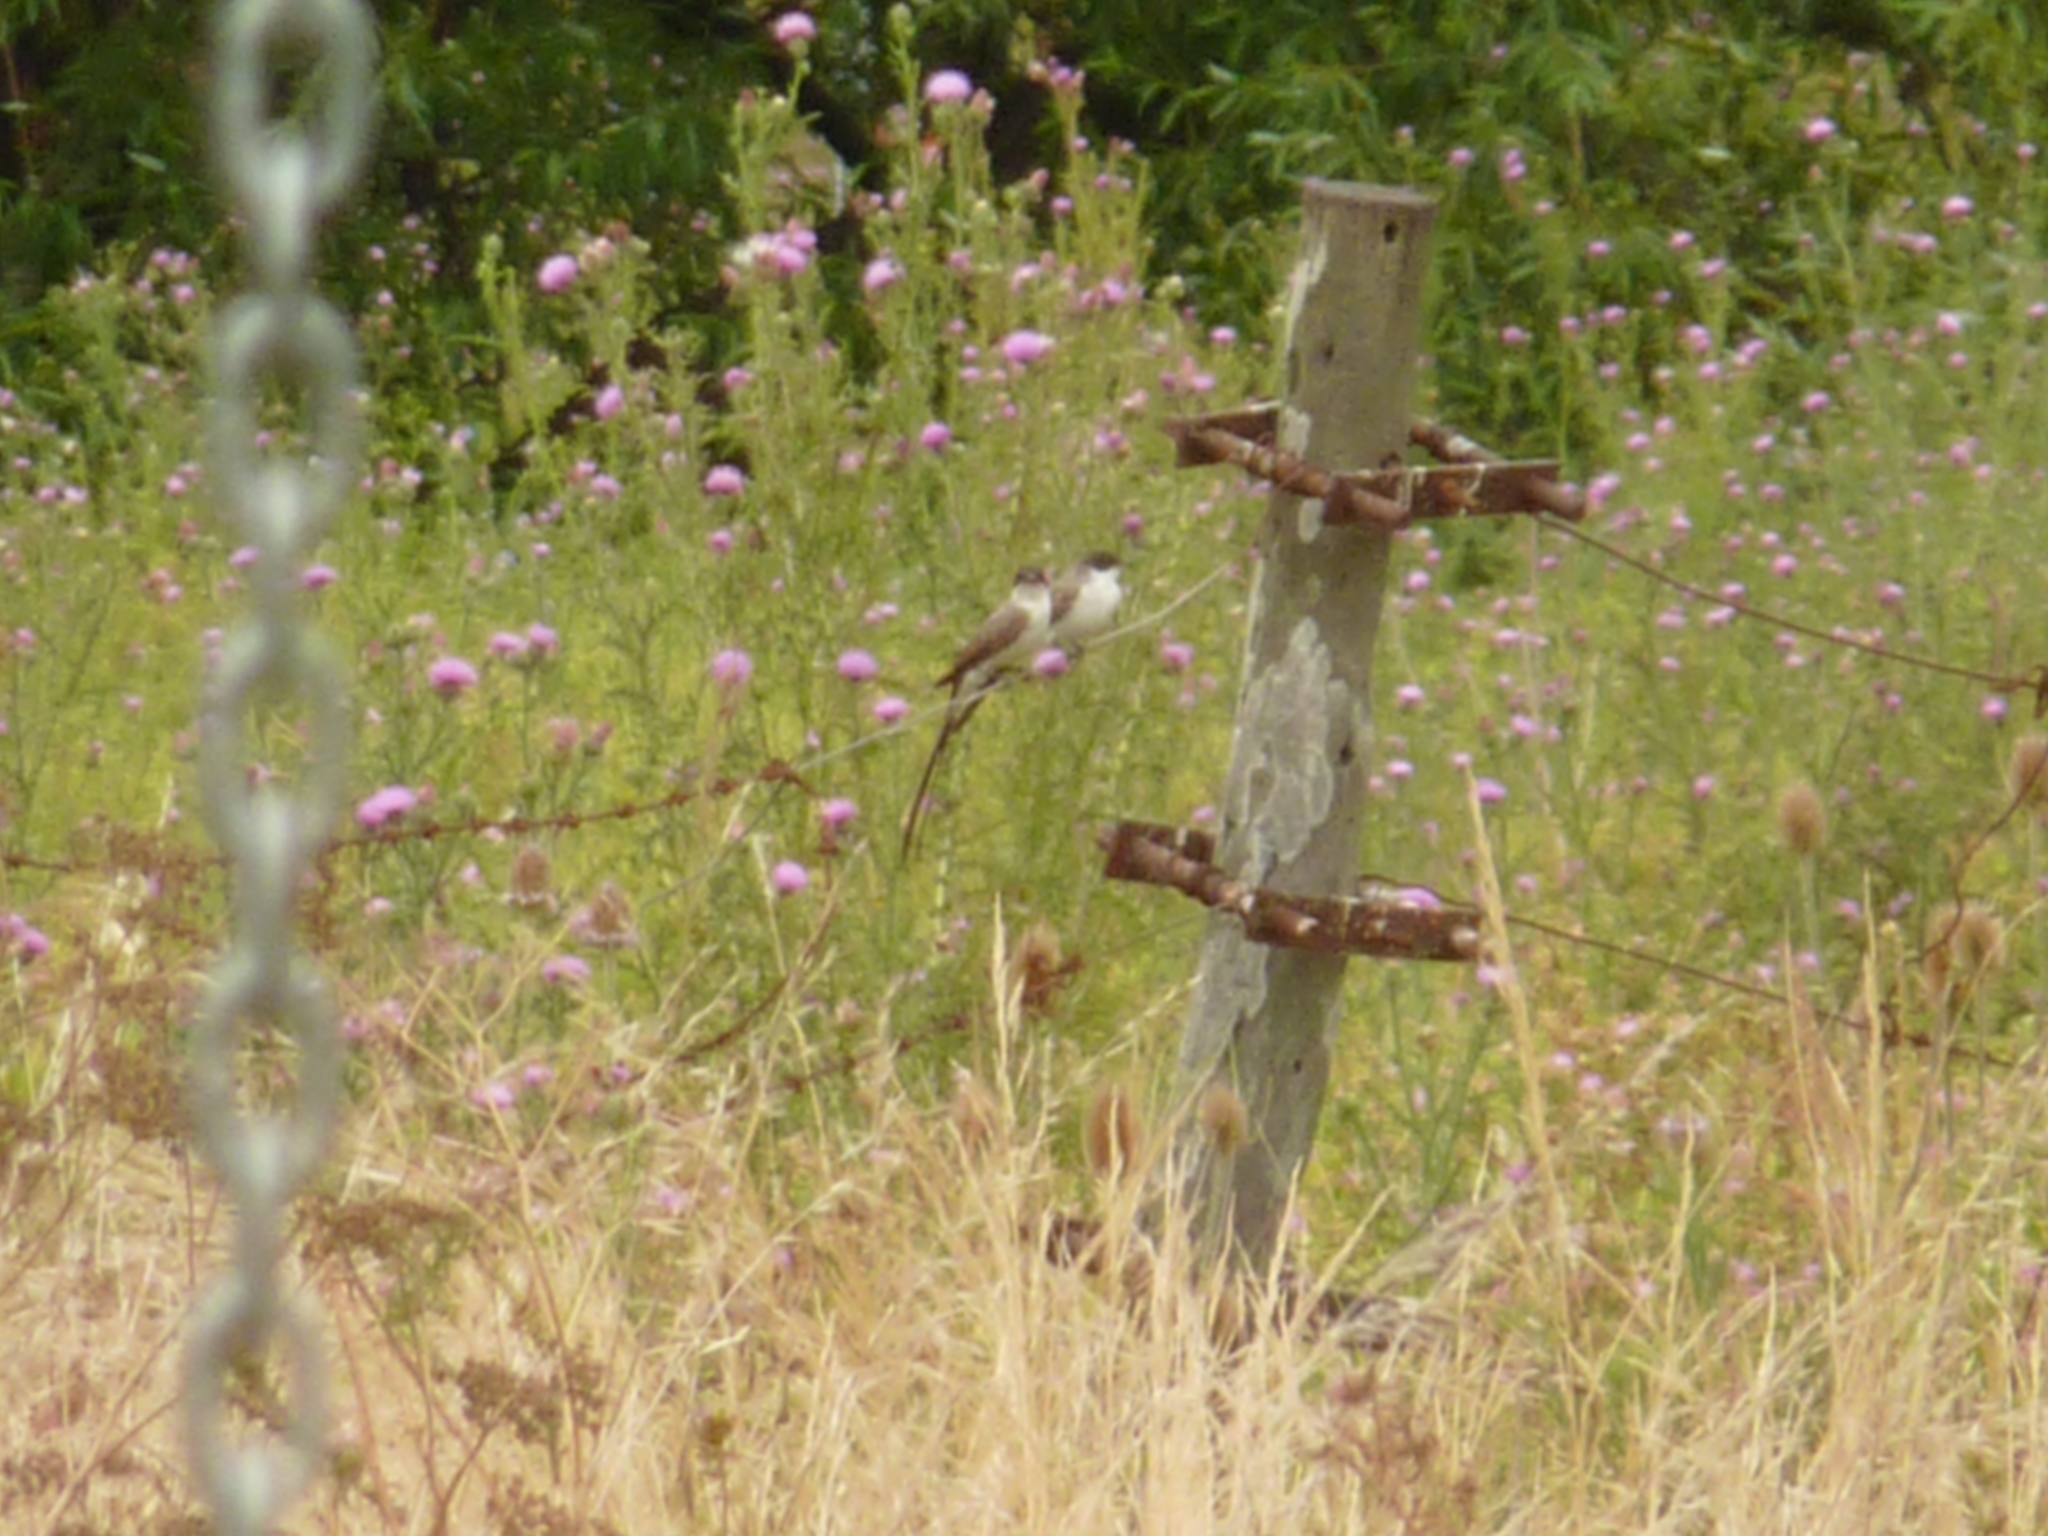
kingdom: Animalia
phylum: Chordata
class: Aves
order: Passeriformes
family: Tyrannidae
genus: Tyrannus
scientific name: Tyrannus savana
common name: Fork-tailed flycatcher
